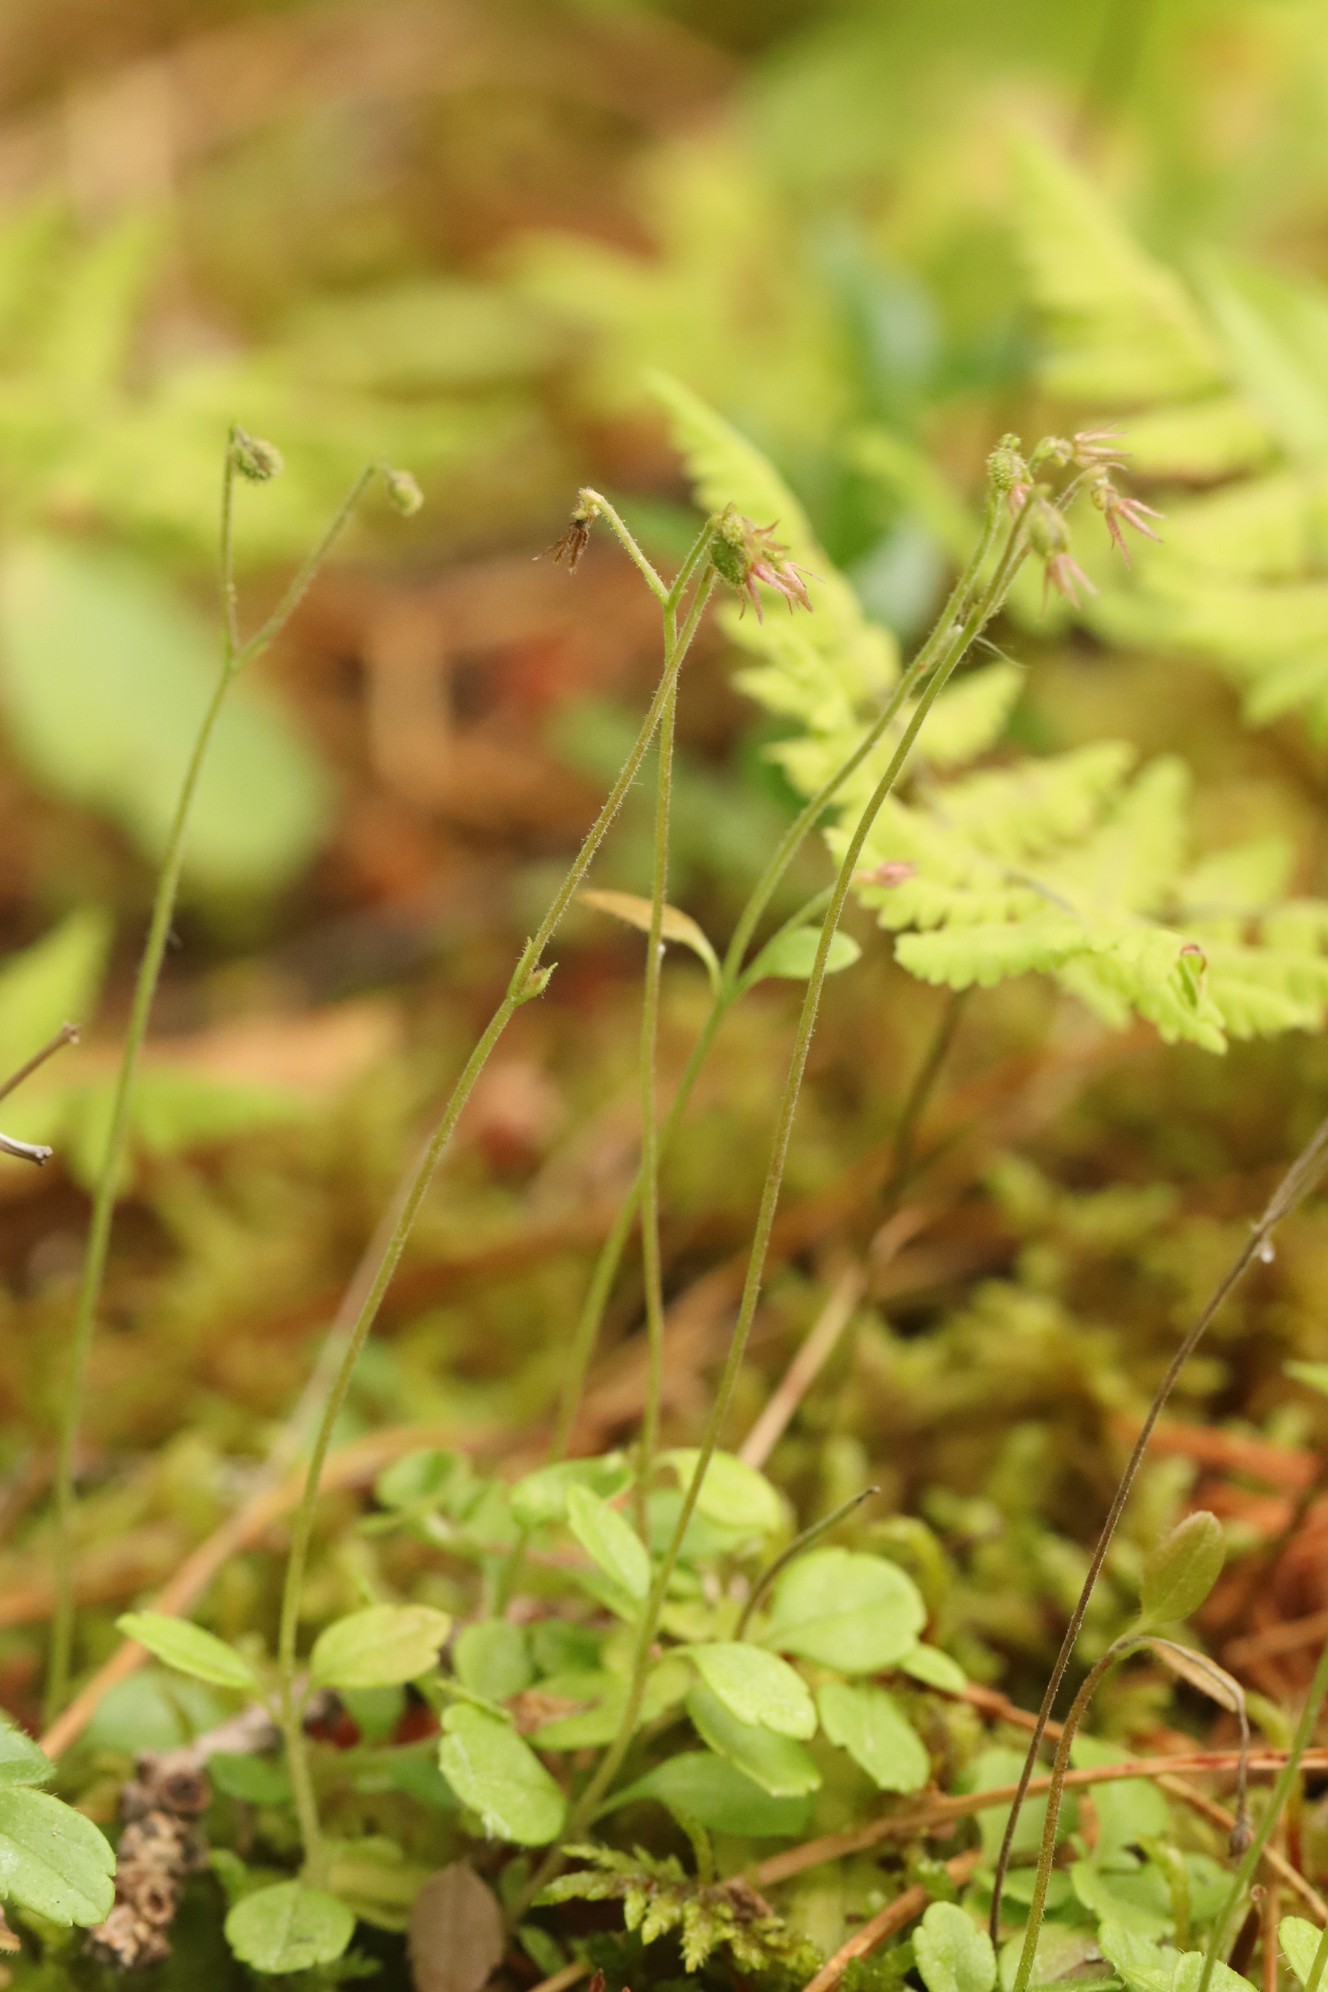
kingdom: Plantae
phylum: Tracheophyta
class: Magnoliopsida
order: Dipsacales
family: Caprifoliaceae
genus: Linnaea
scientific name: Linnaea borealis
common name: Twinflower
